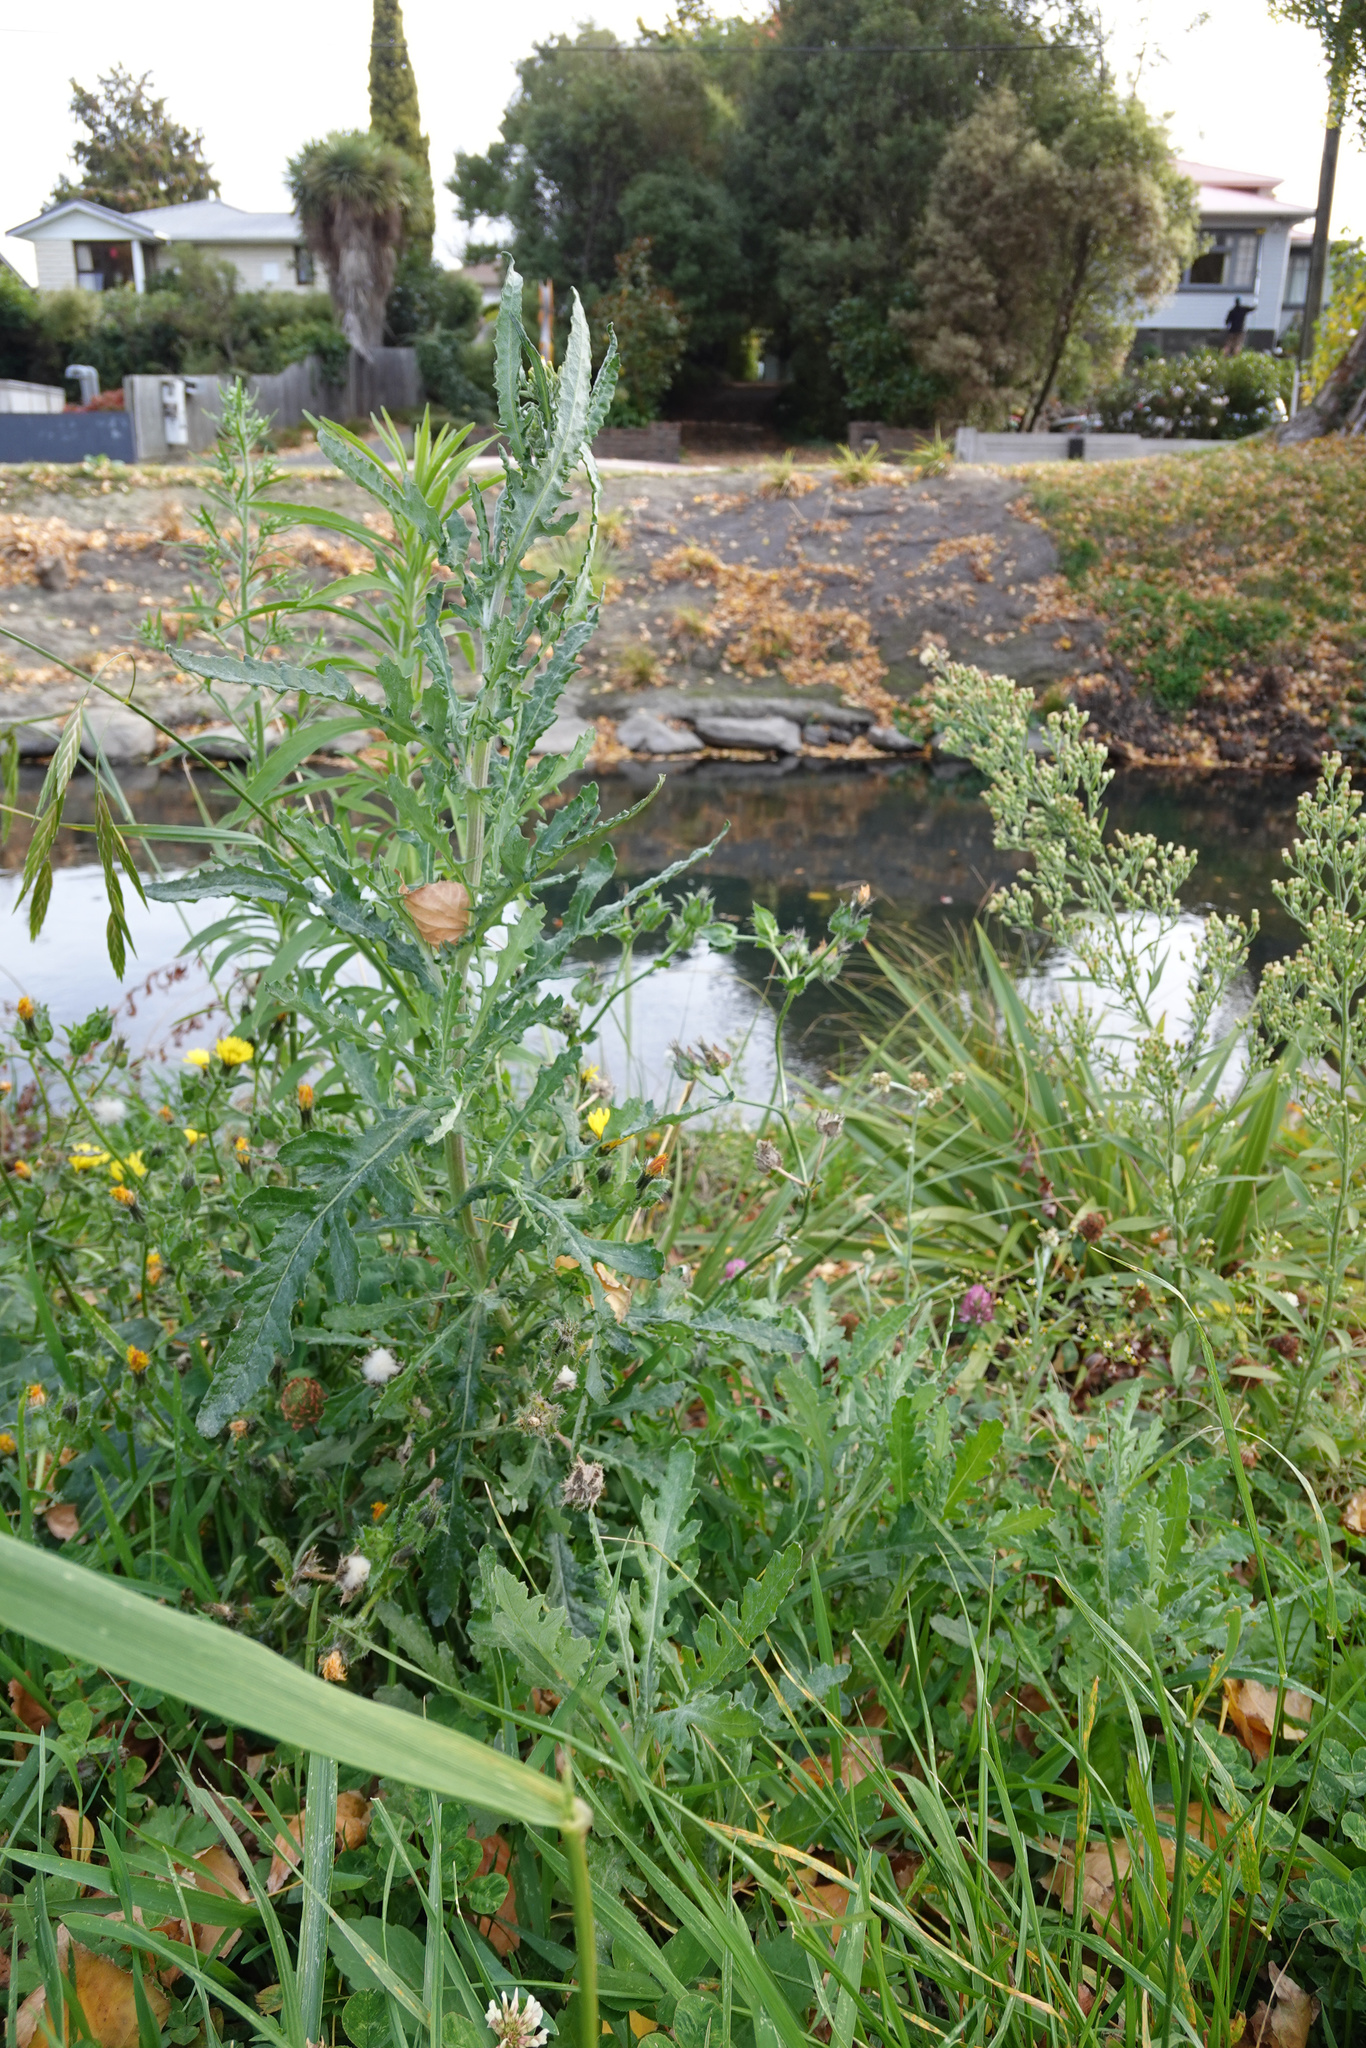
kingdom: Plantae
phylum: Tracheophyta
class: Magnoliopsida
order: Asterales
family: Asteraceae
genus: Senecio
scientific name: Senecio glomeratus
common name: Cutleaf burnweed
